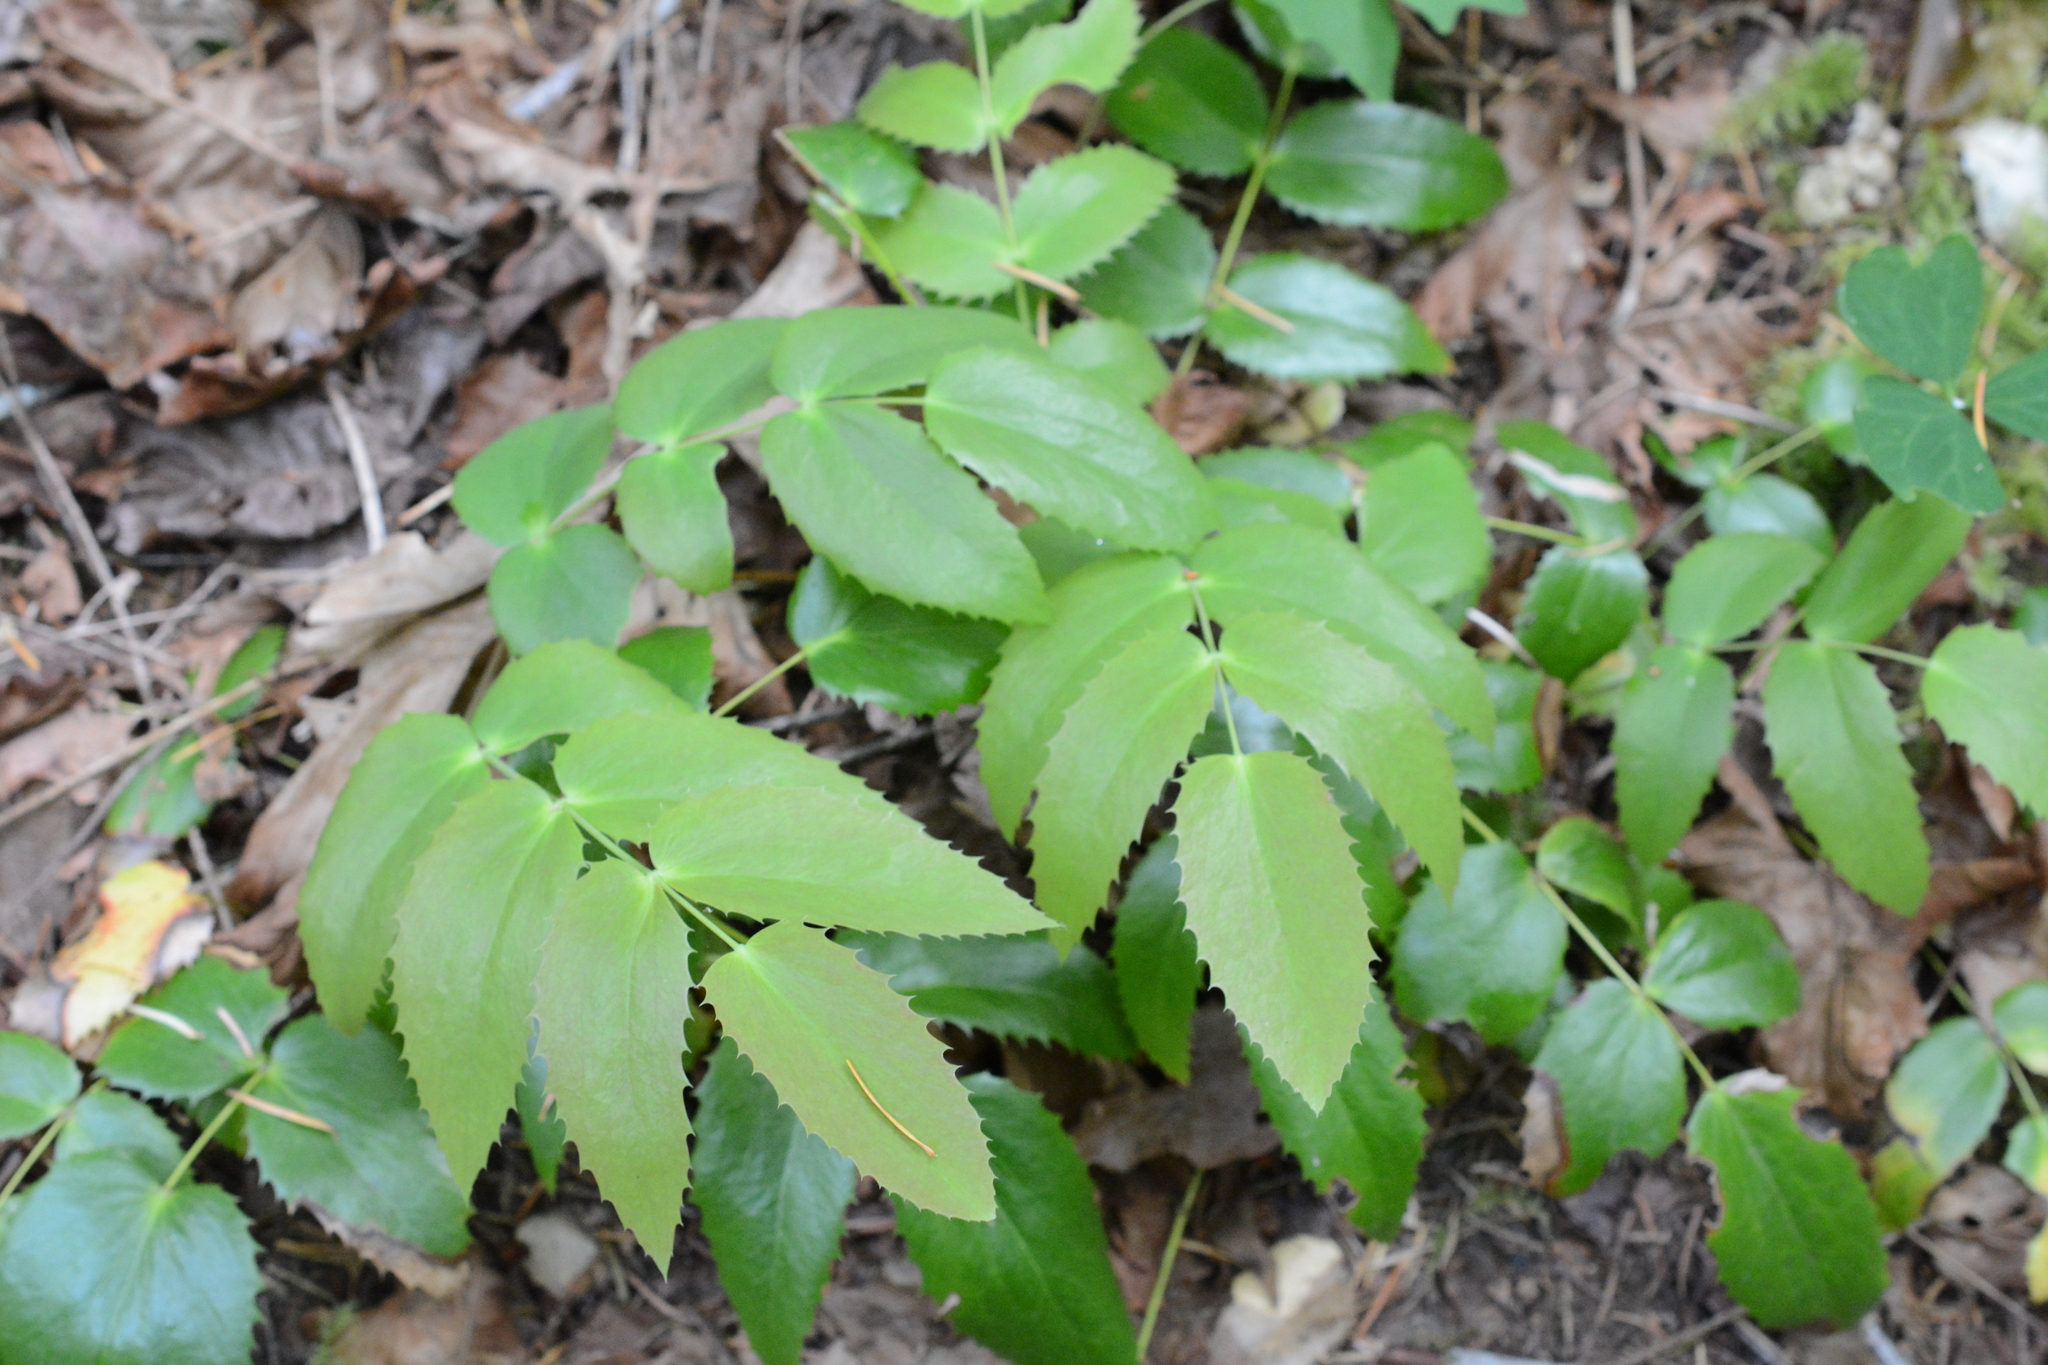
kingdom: Plantae
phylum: Tracheophyta
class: Magnoliopsida
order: Ranunculales
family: Berberidaceae
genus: Mahonia
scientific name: Mahonia nervosa
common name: Cascade oregon-grape
